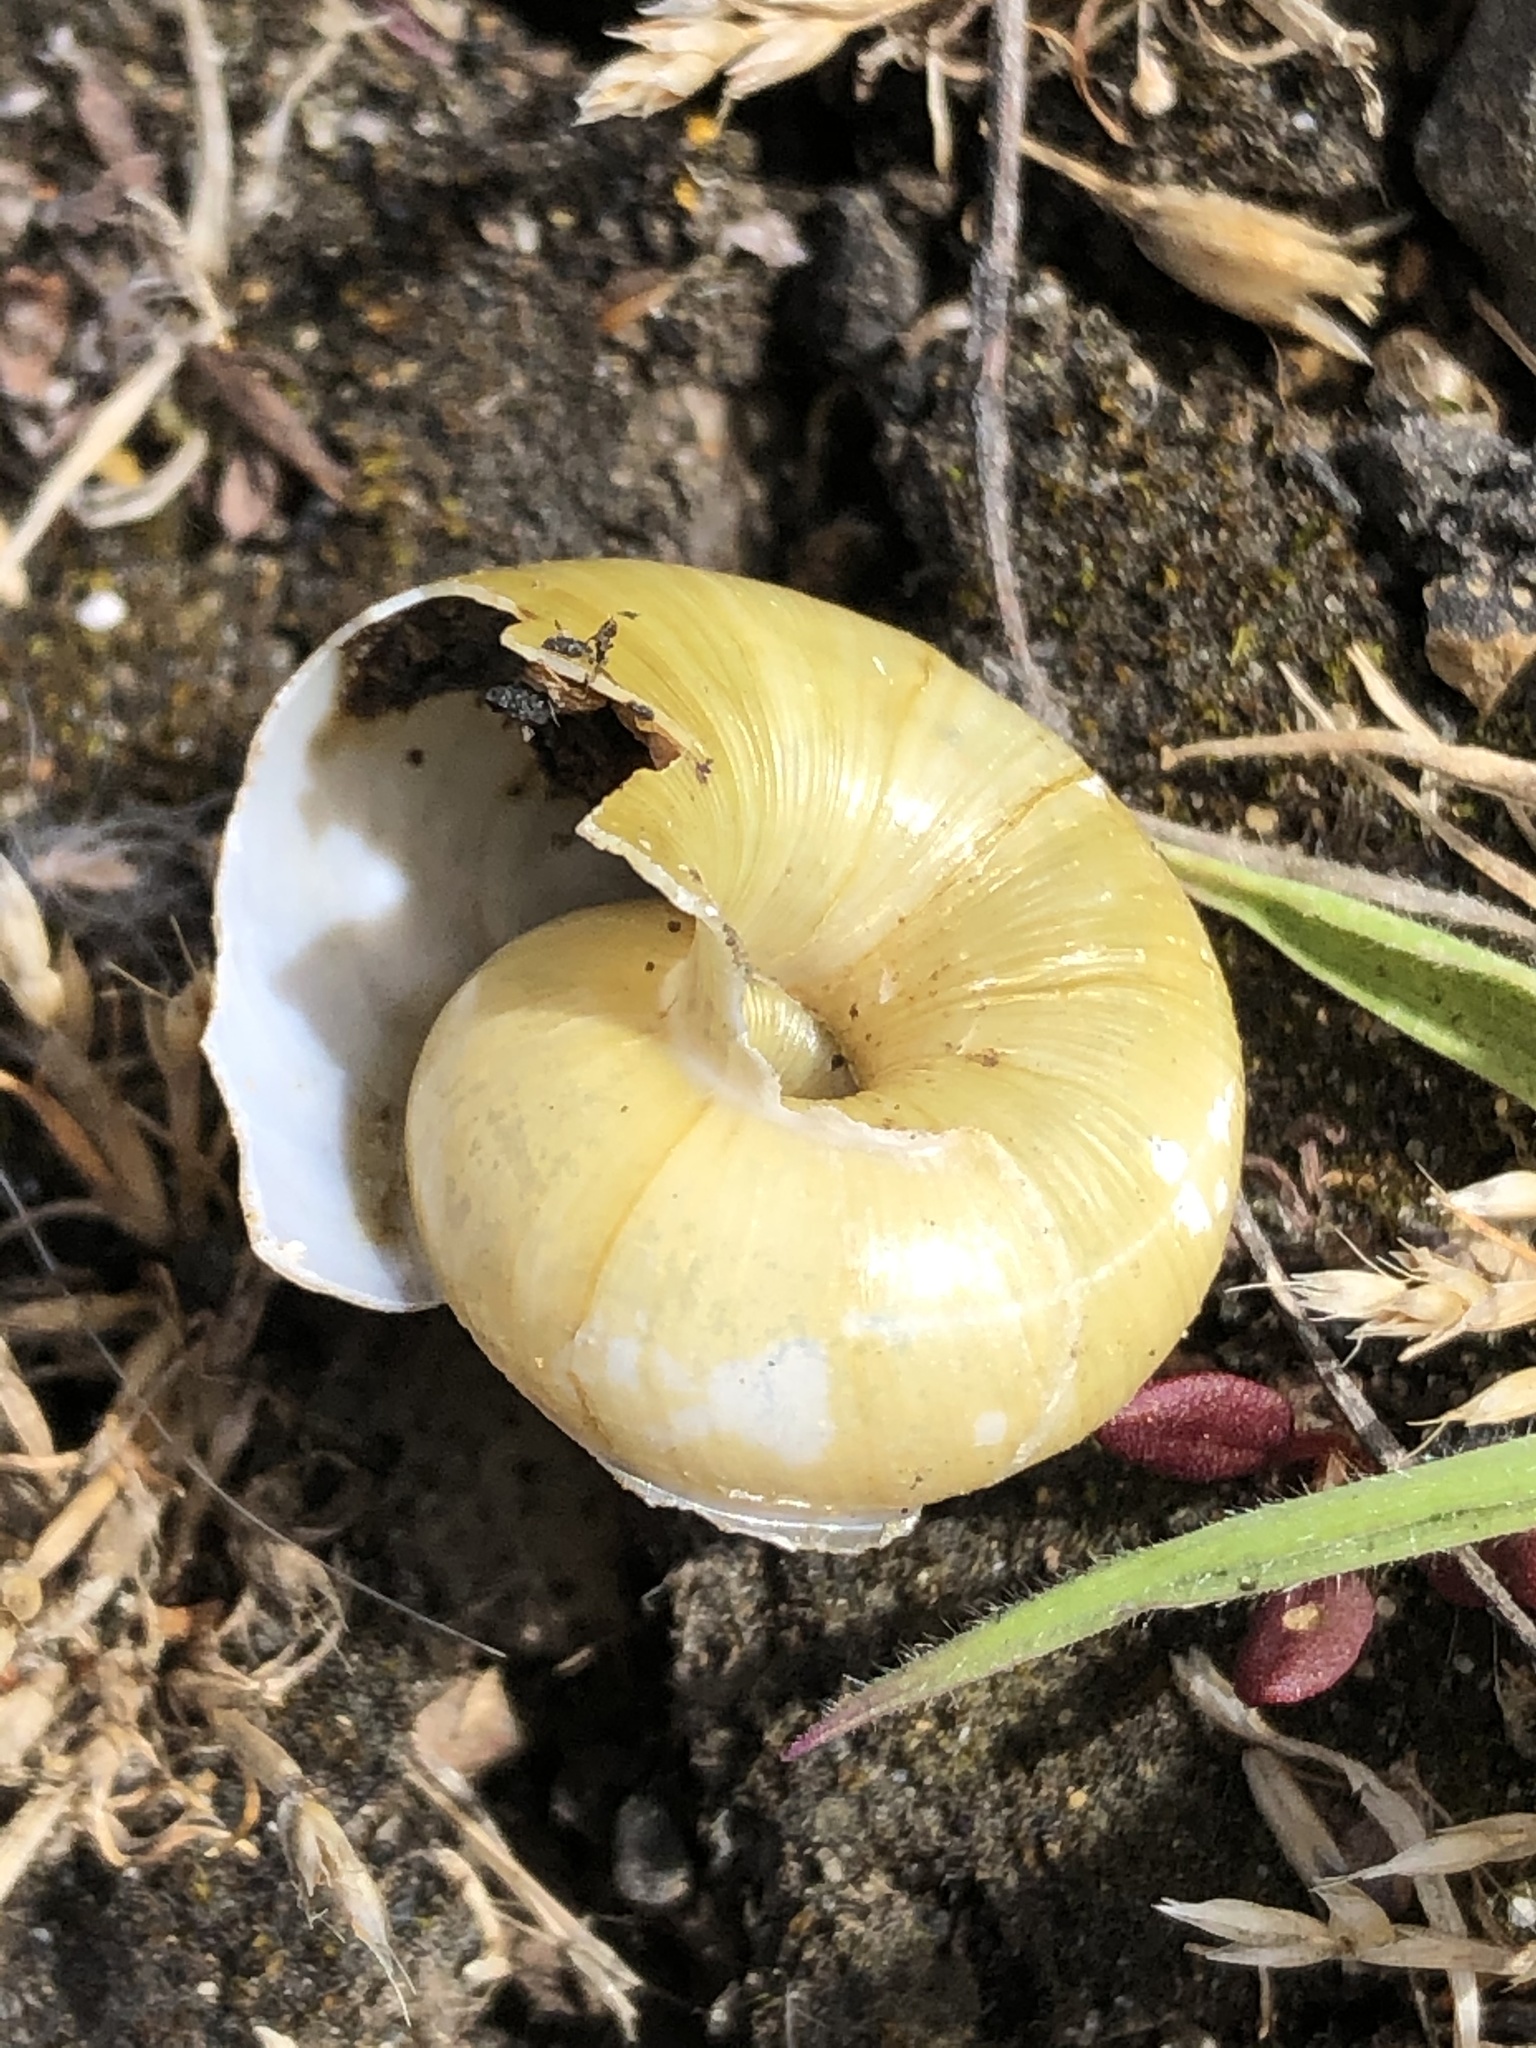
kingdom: Animalia
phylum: Mollusca
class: Gastropoda
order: Stylommatophora
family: Haplotrematidae
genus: Haplotrema
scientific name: Haplotrema vancouverense
